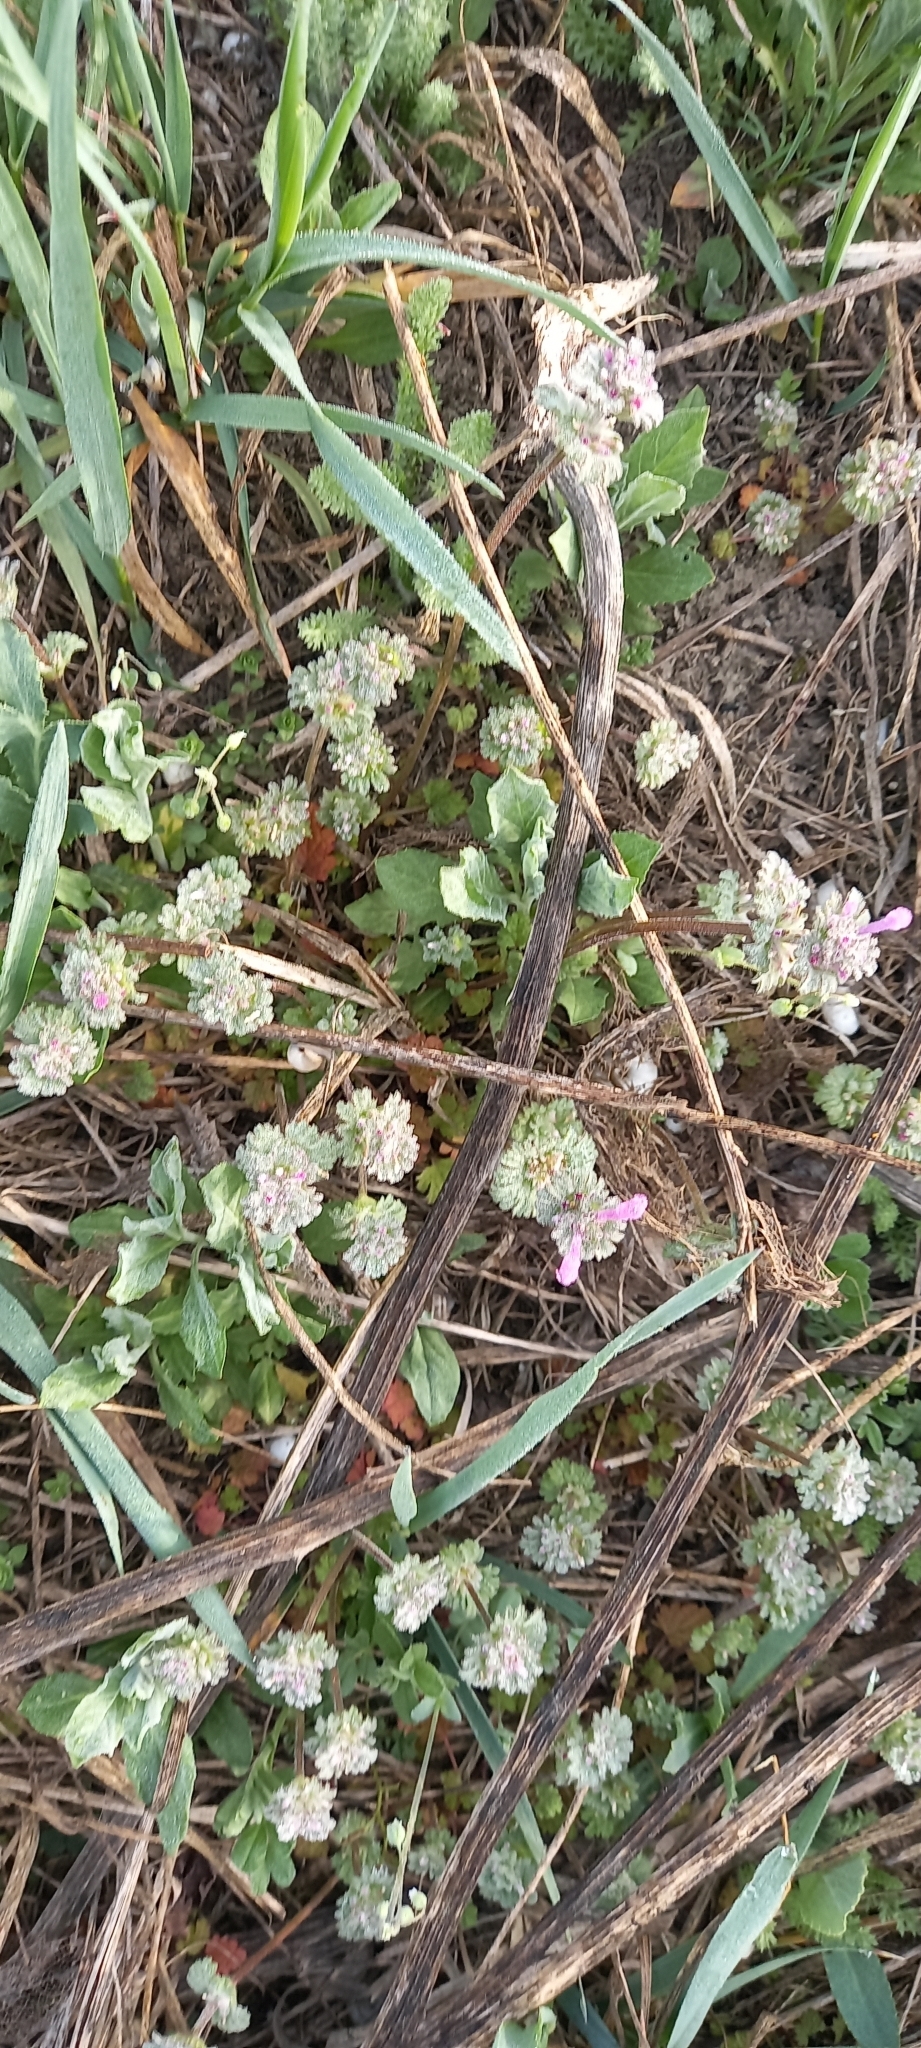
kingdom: Plantae
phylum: Tracheophyta
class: Magnoliopsida
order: Lamiales
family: Lamiaceae
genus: Lamium
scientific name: Lamium amplexicaule
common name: Henbit dead-nettle
